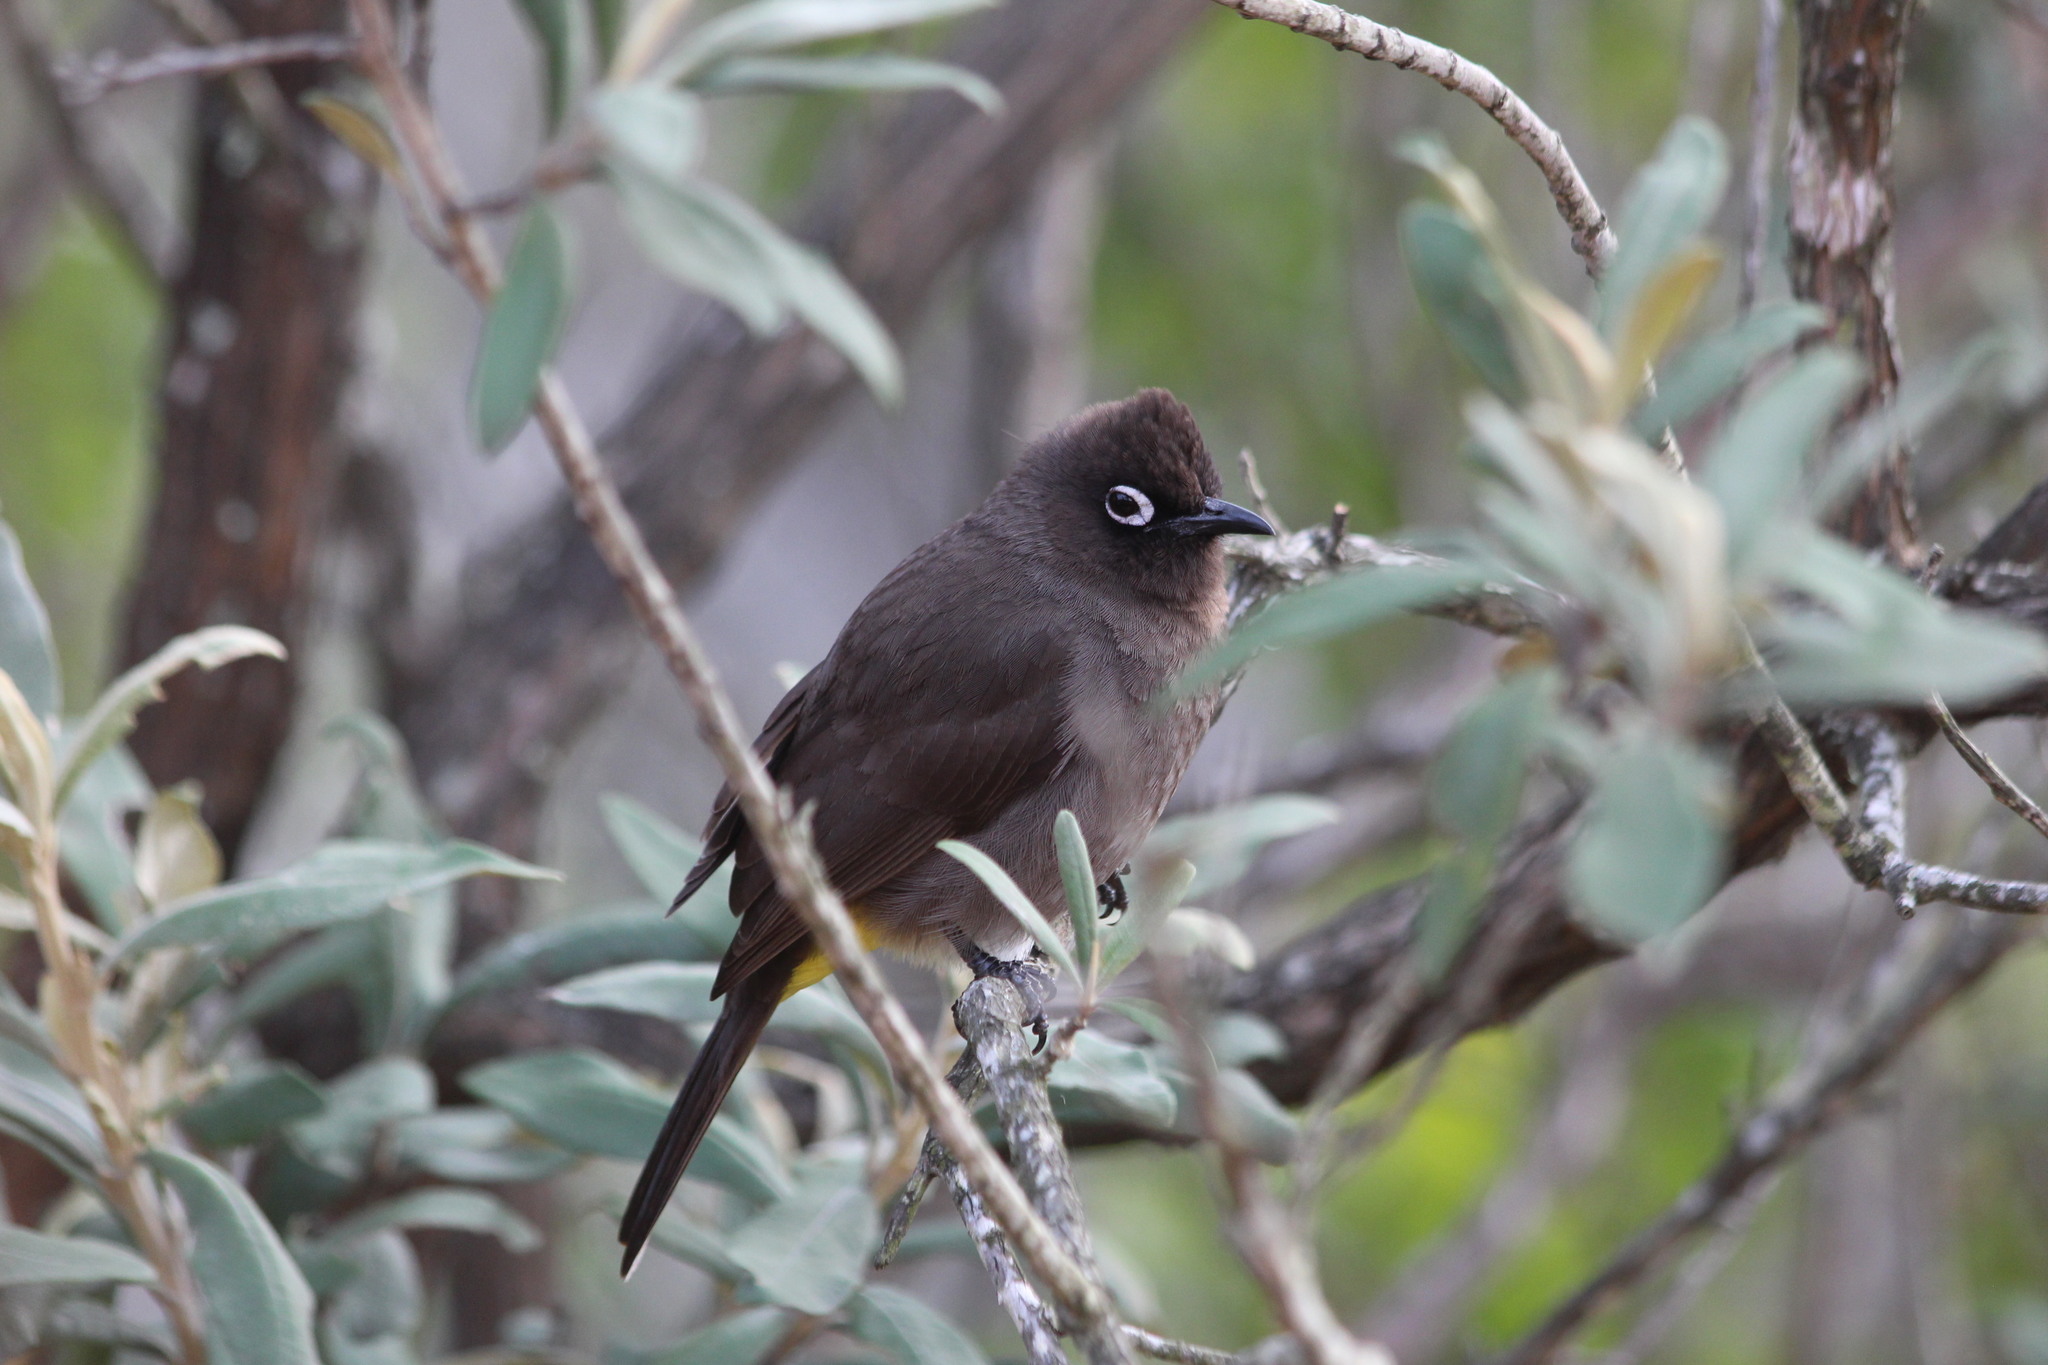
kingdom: Animalia
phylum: Chordata
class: Aves
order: Passeriformes
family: Pycnonotidae
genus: Pycnonotus
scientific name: Pycnonotus capensis
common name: Cape bulbul
